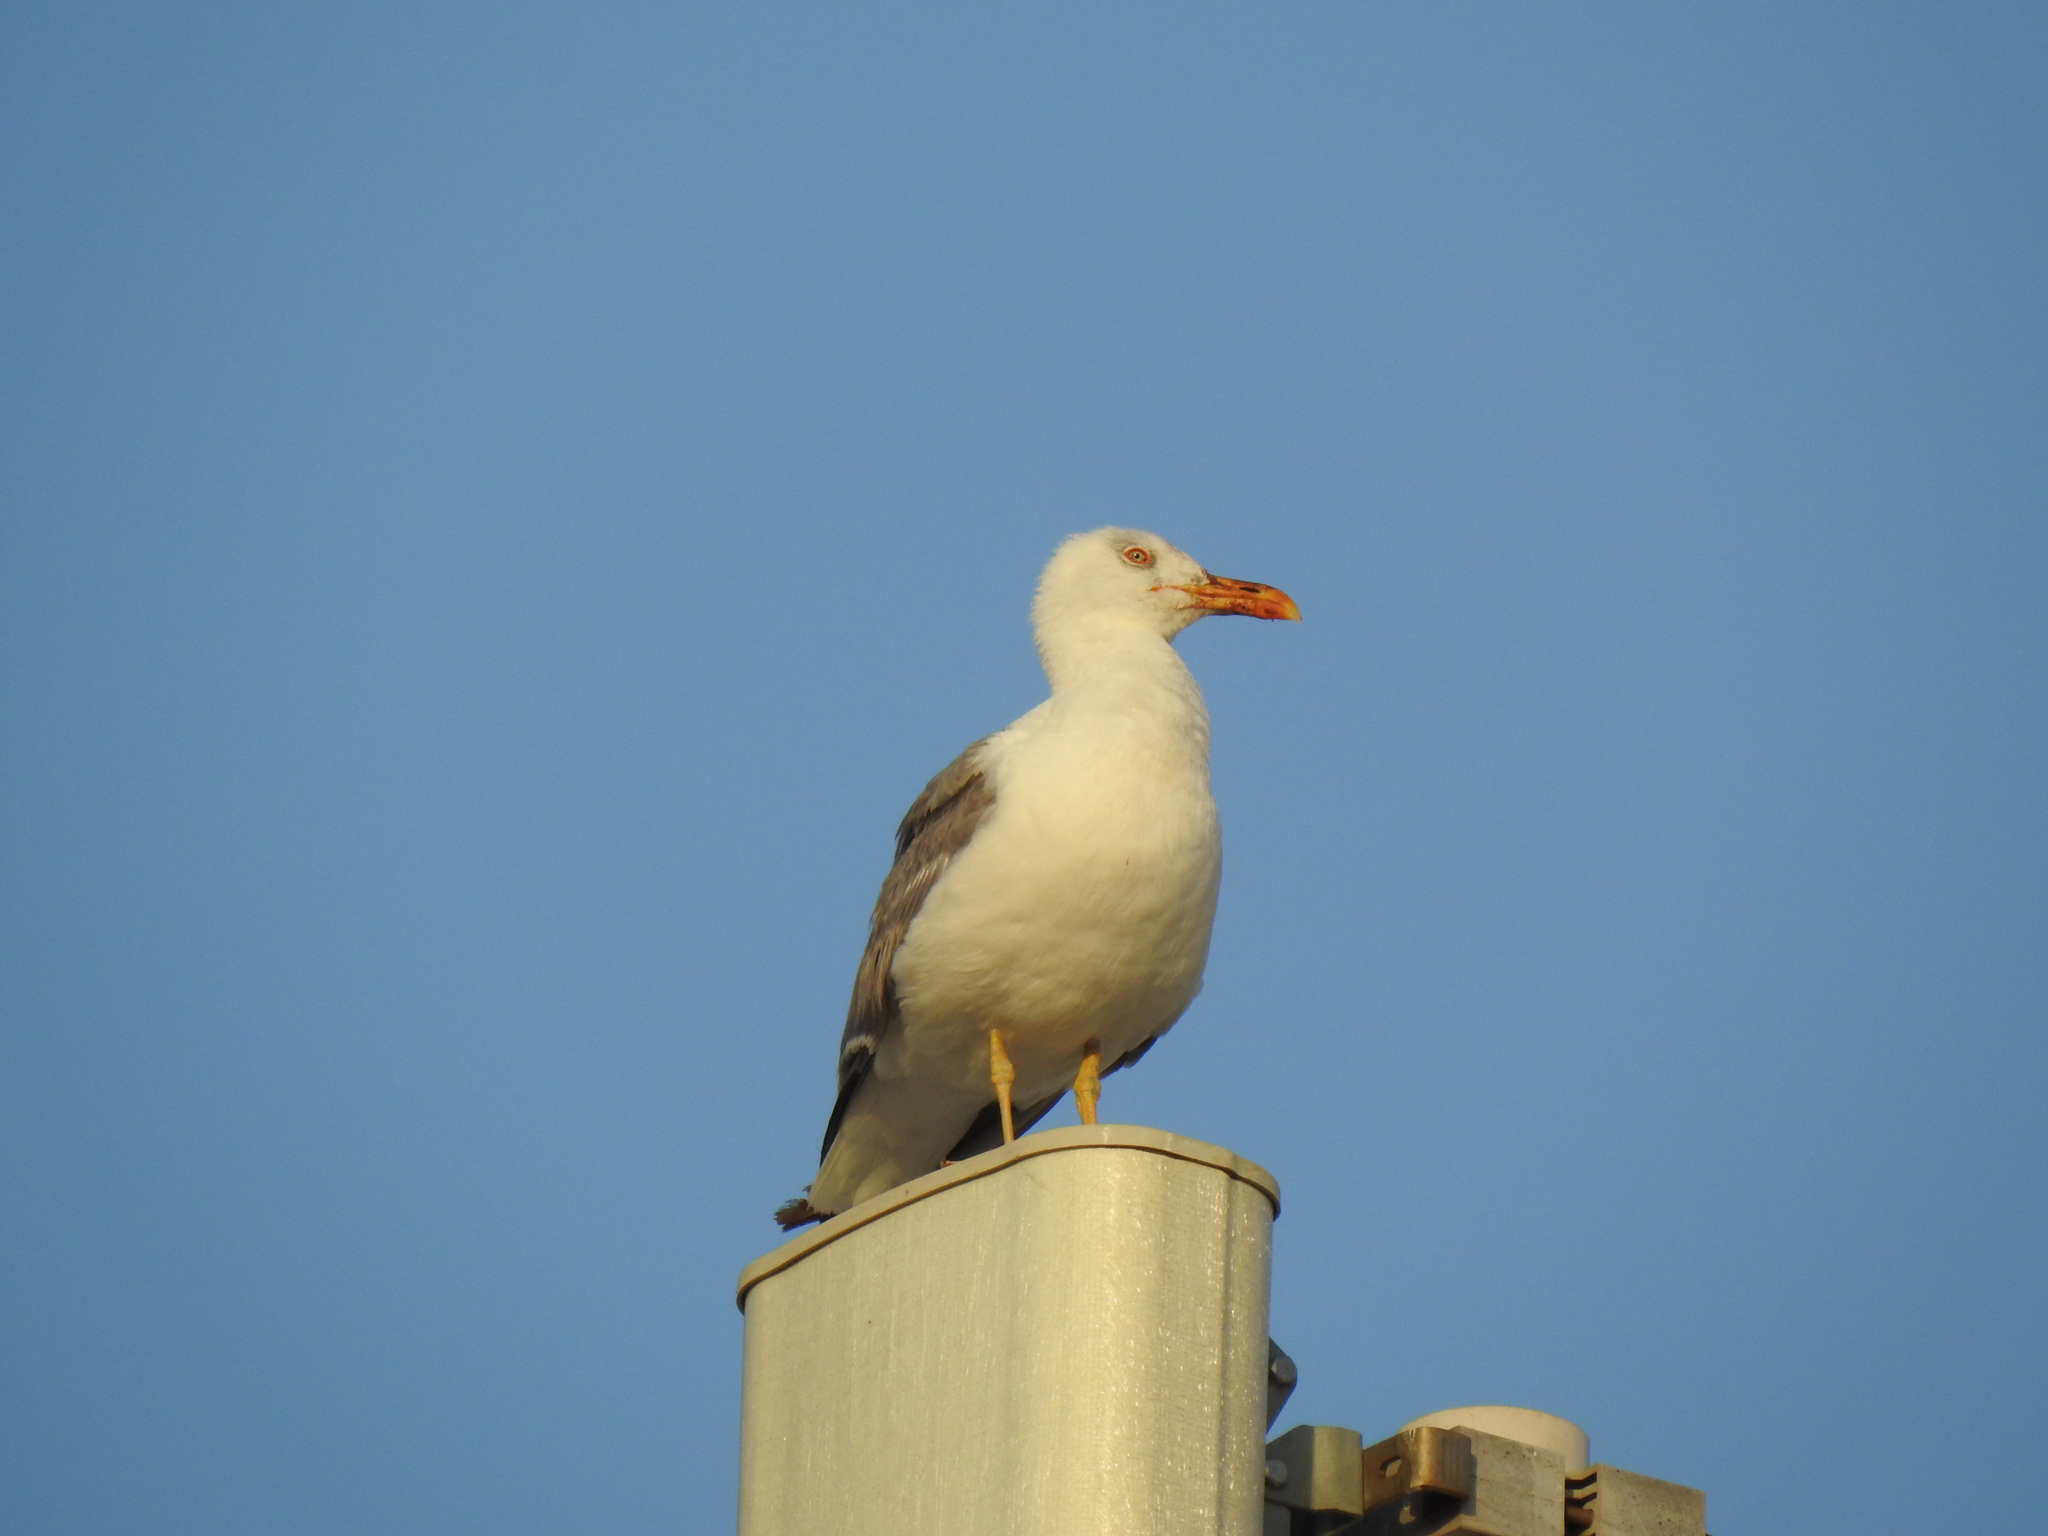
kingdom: Animalia
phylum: Chordata
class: Aves
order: Charadriiformes
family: Laridae
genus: Larus
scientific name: Larus michahellis
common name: Yellow-legged gull
